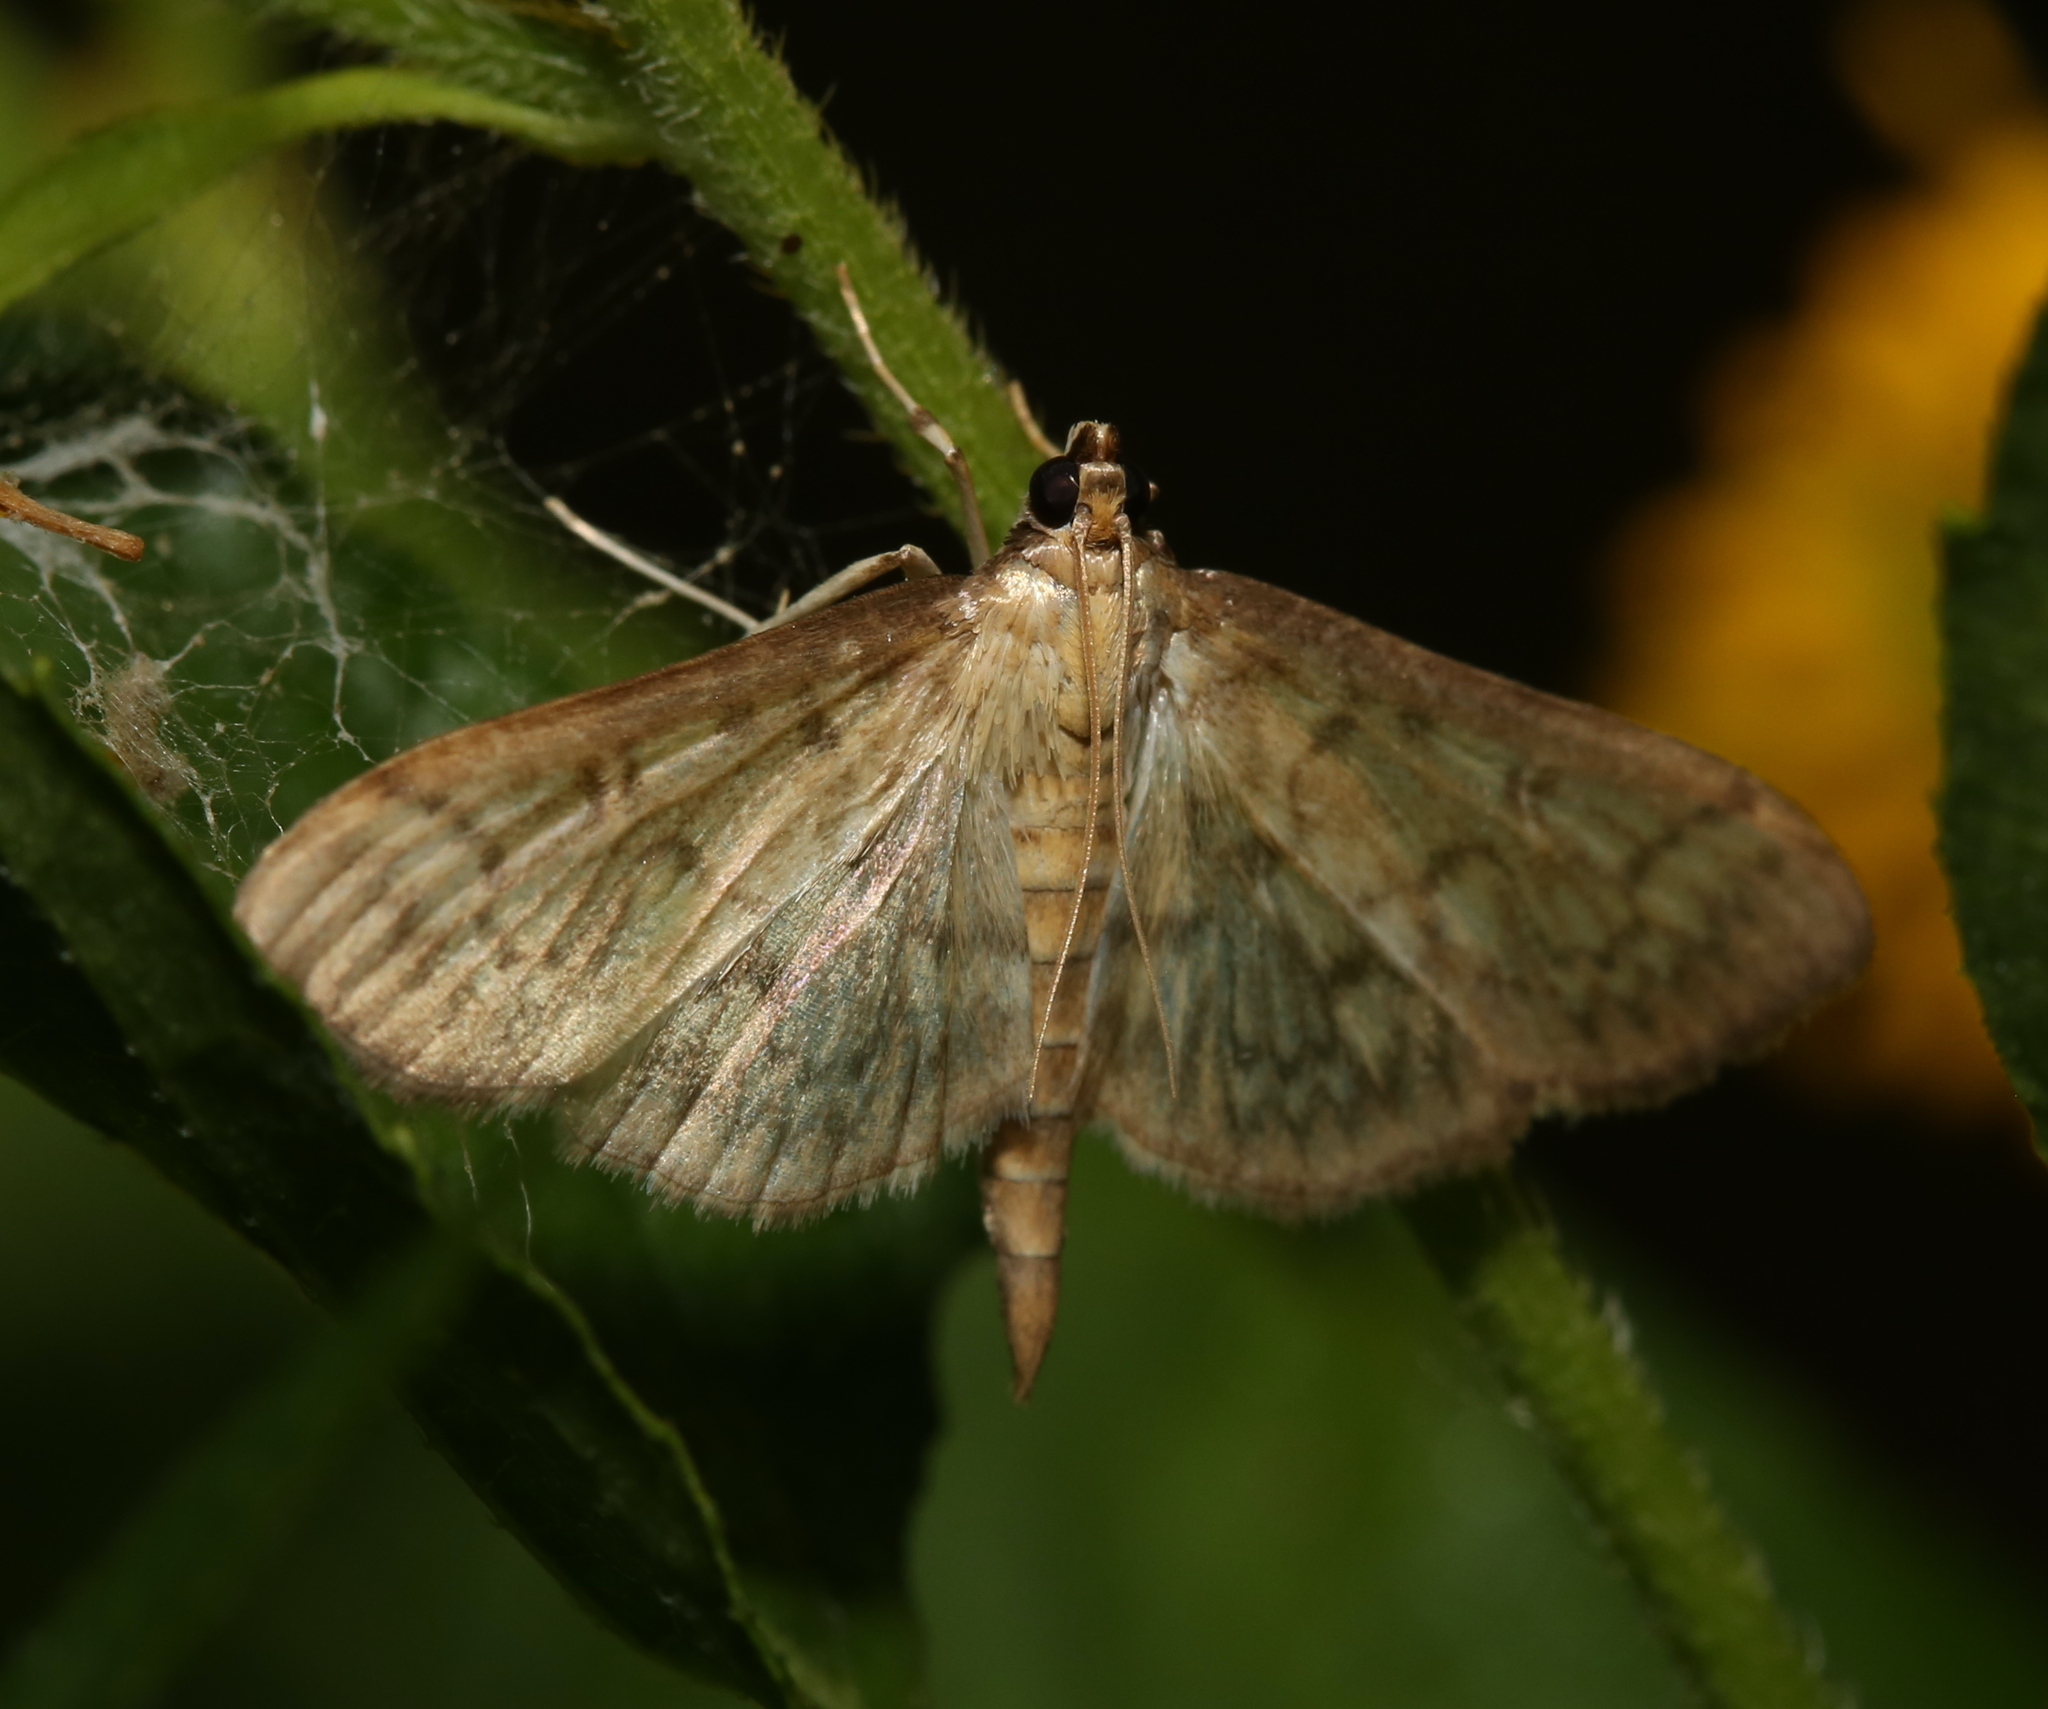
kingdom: Animalia
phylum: Arthropoda
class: Insecta
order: Lepidoptera
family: Crambidae
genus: Herpetogramma
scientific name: Herpetogramma pertextalis
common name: Bold-feathered grass moth
